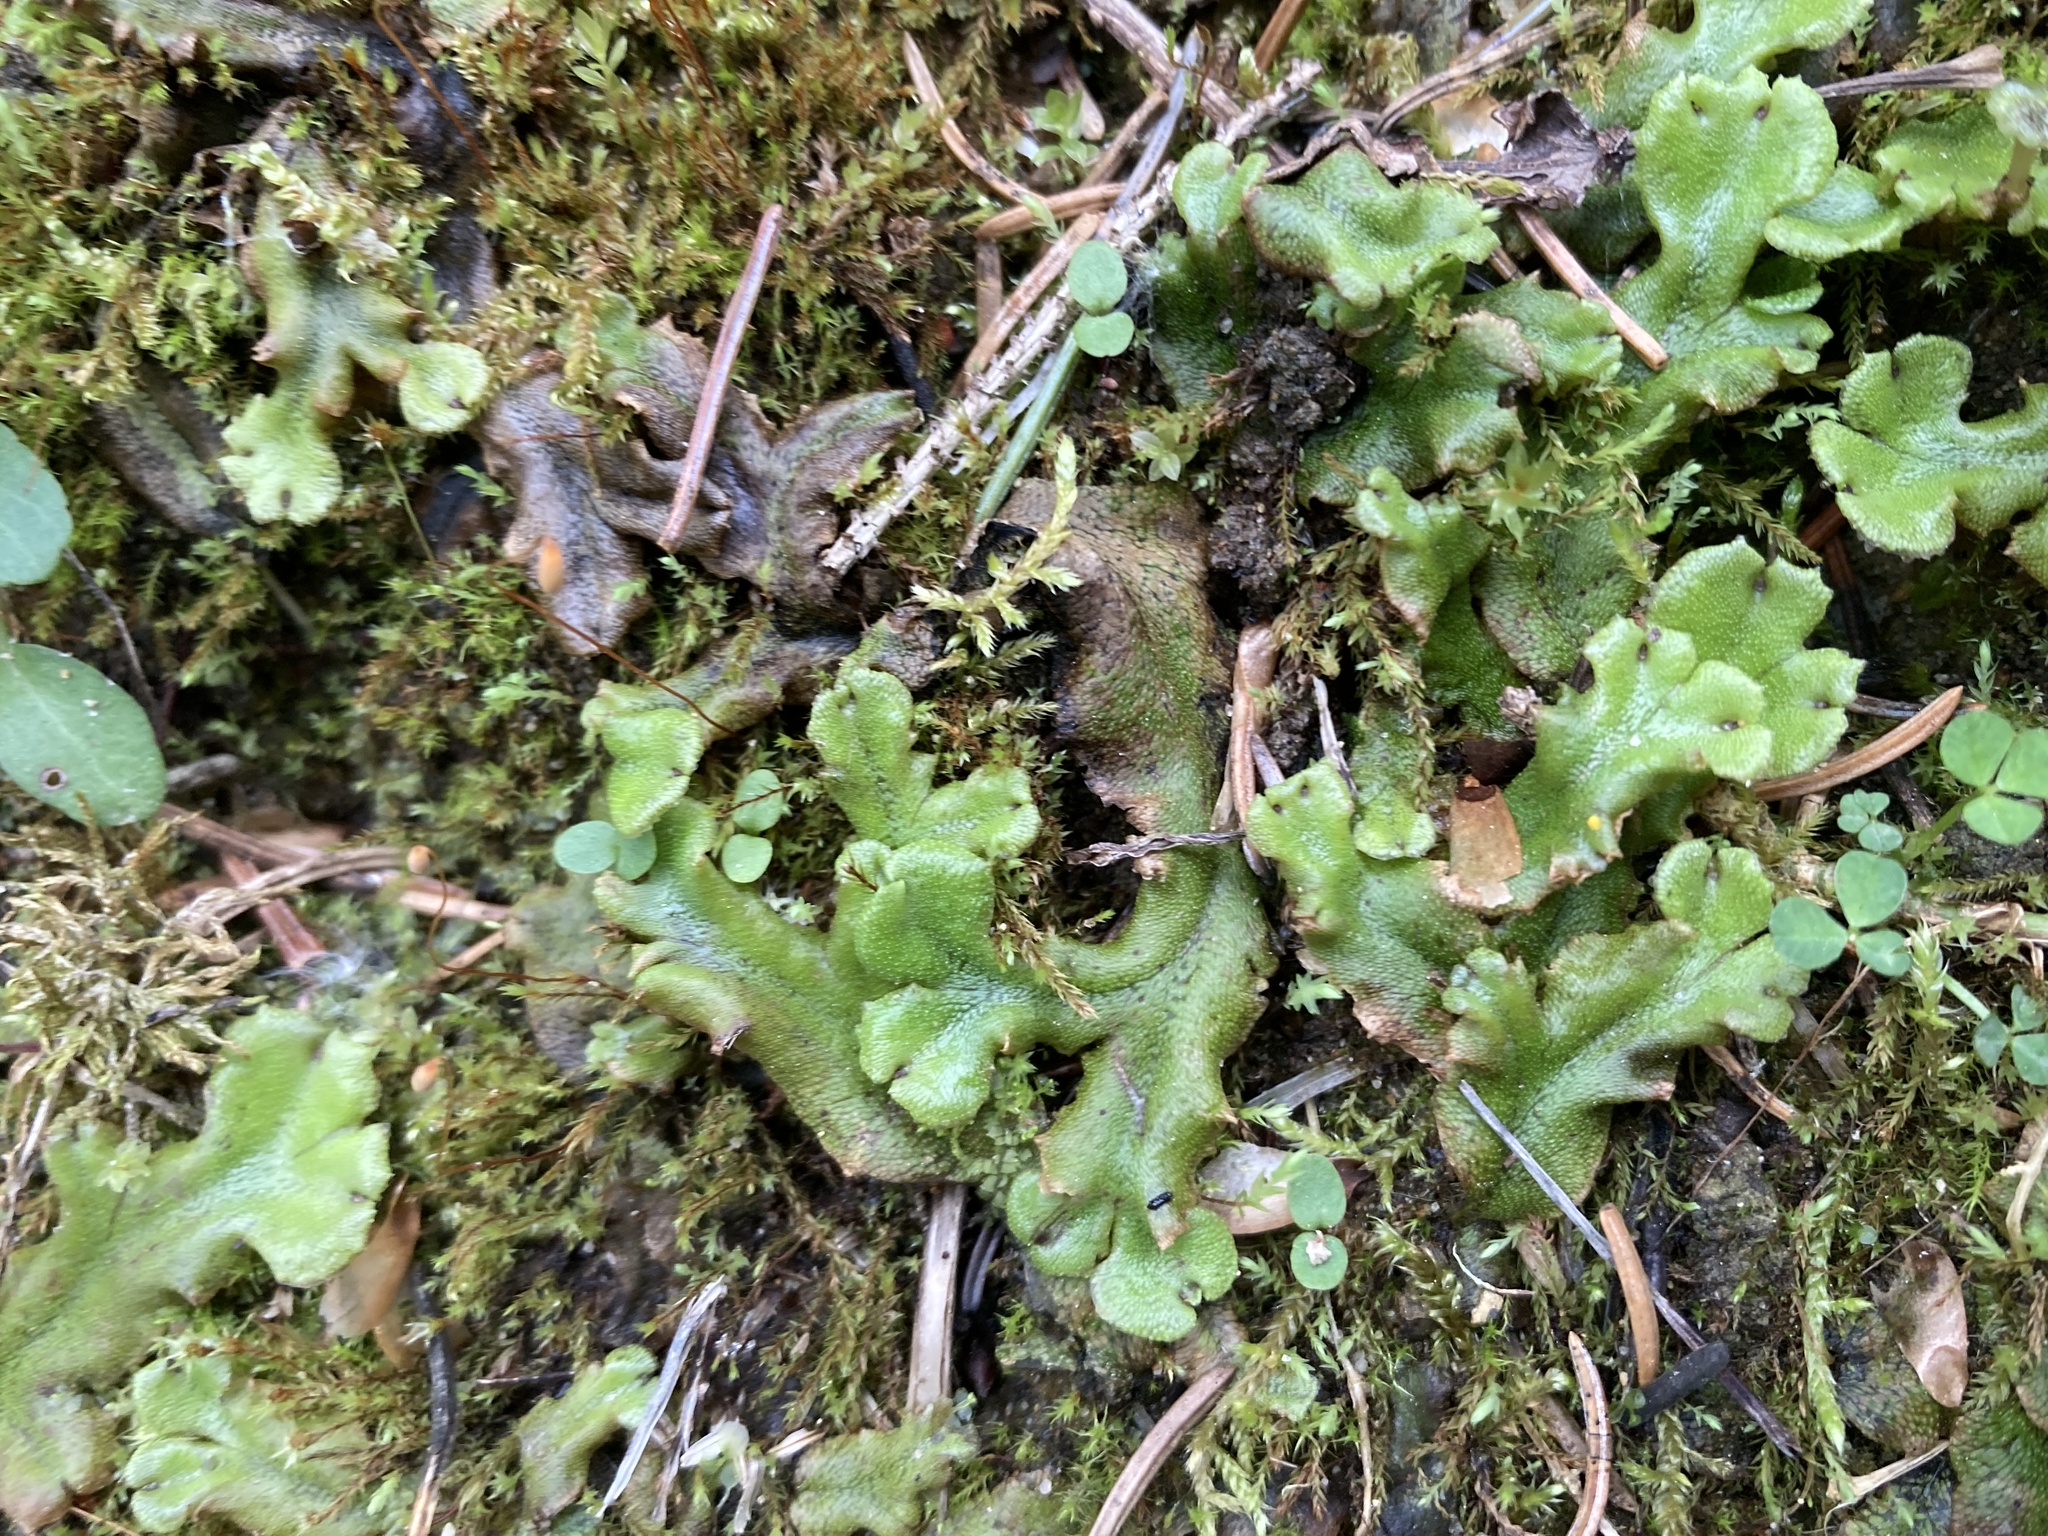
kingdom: Plantae
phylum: Marchantiophyta
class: Marchantiopsida
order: Marchantiales
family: Marchantiaceae
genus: Marchantia
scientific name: Marchantia polymorpha
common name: Common liverwort
